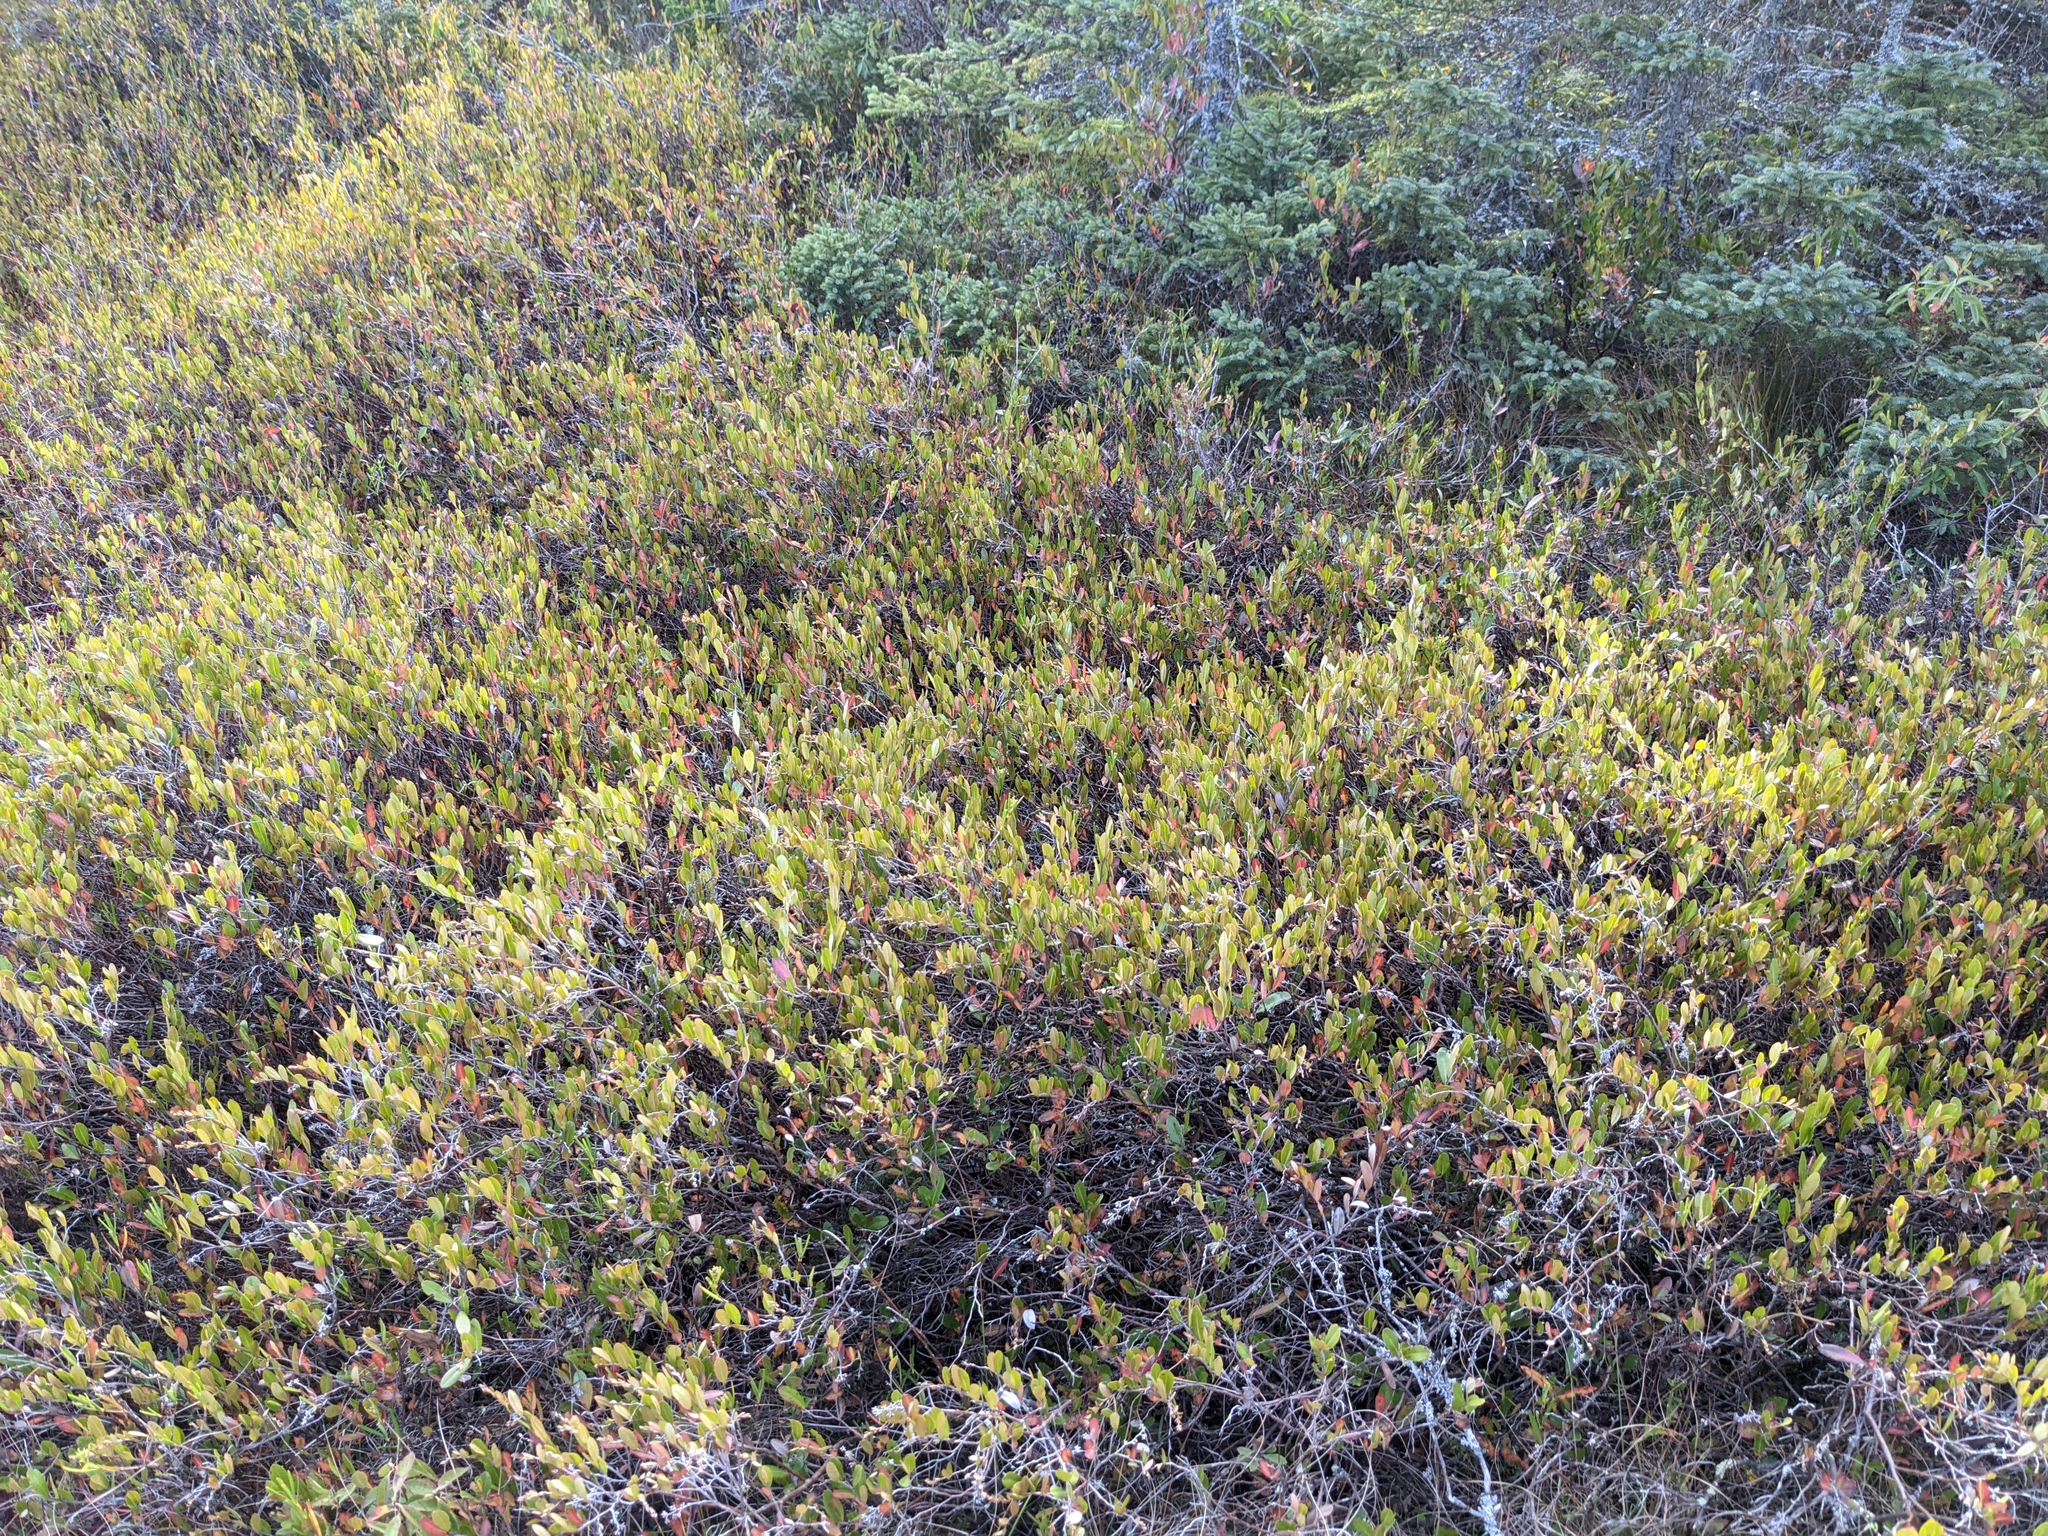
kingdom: Plantae
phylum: Tracheophyta
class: Magnoliopsida
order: Ericales
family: Ericaceae
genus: Chamaedaphne
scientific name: Chamaedaphne calyculata
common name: Leatherleaf
